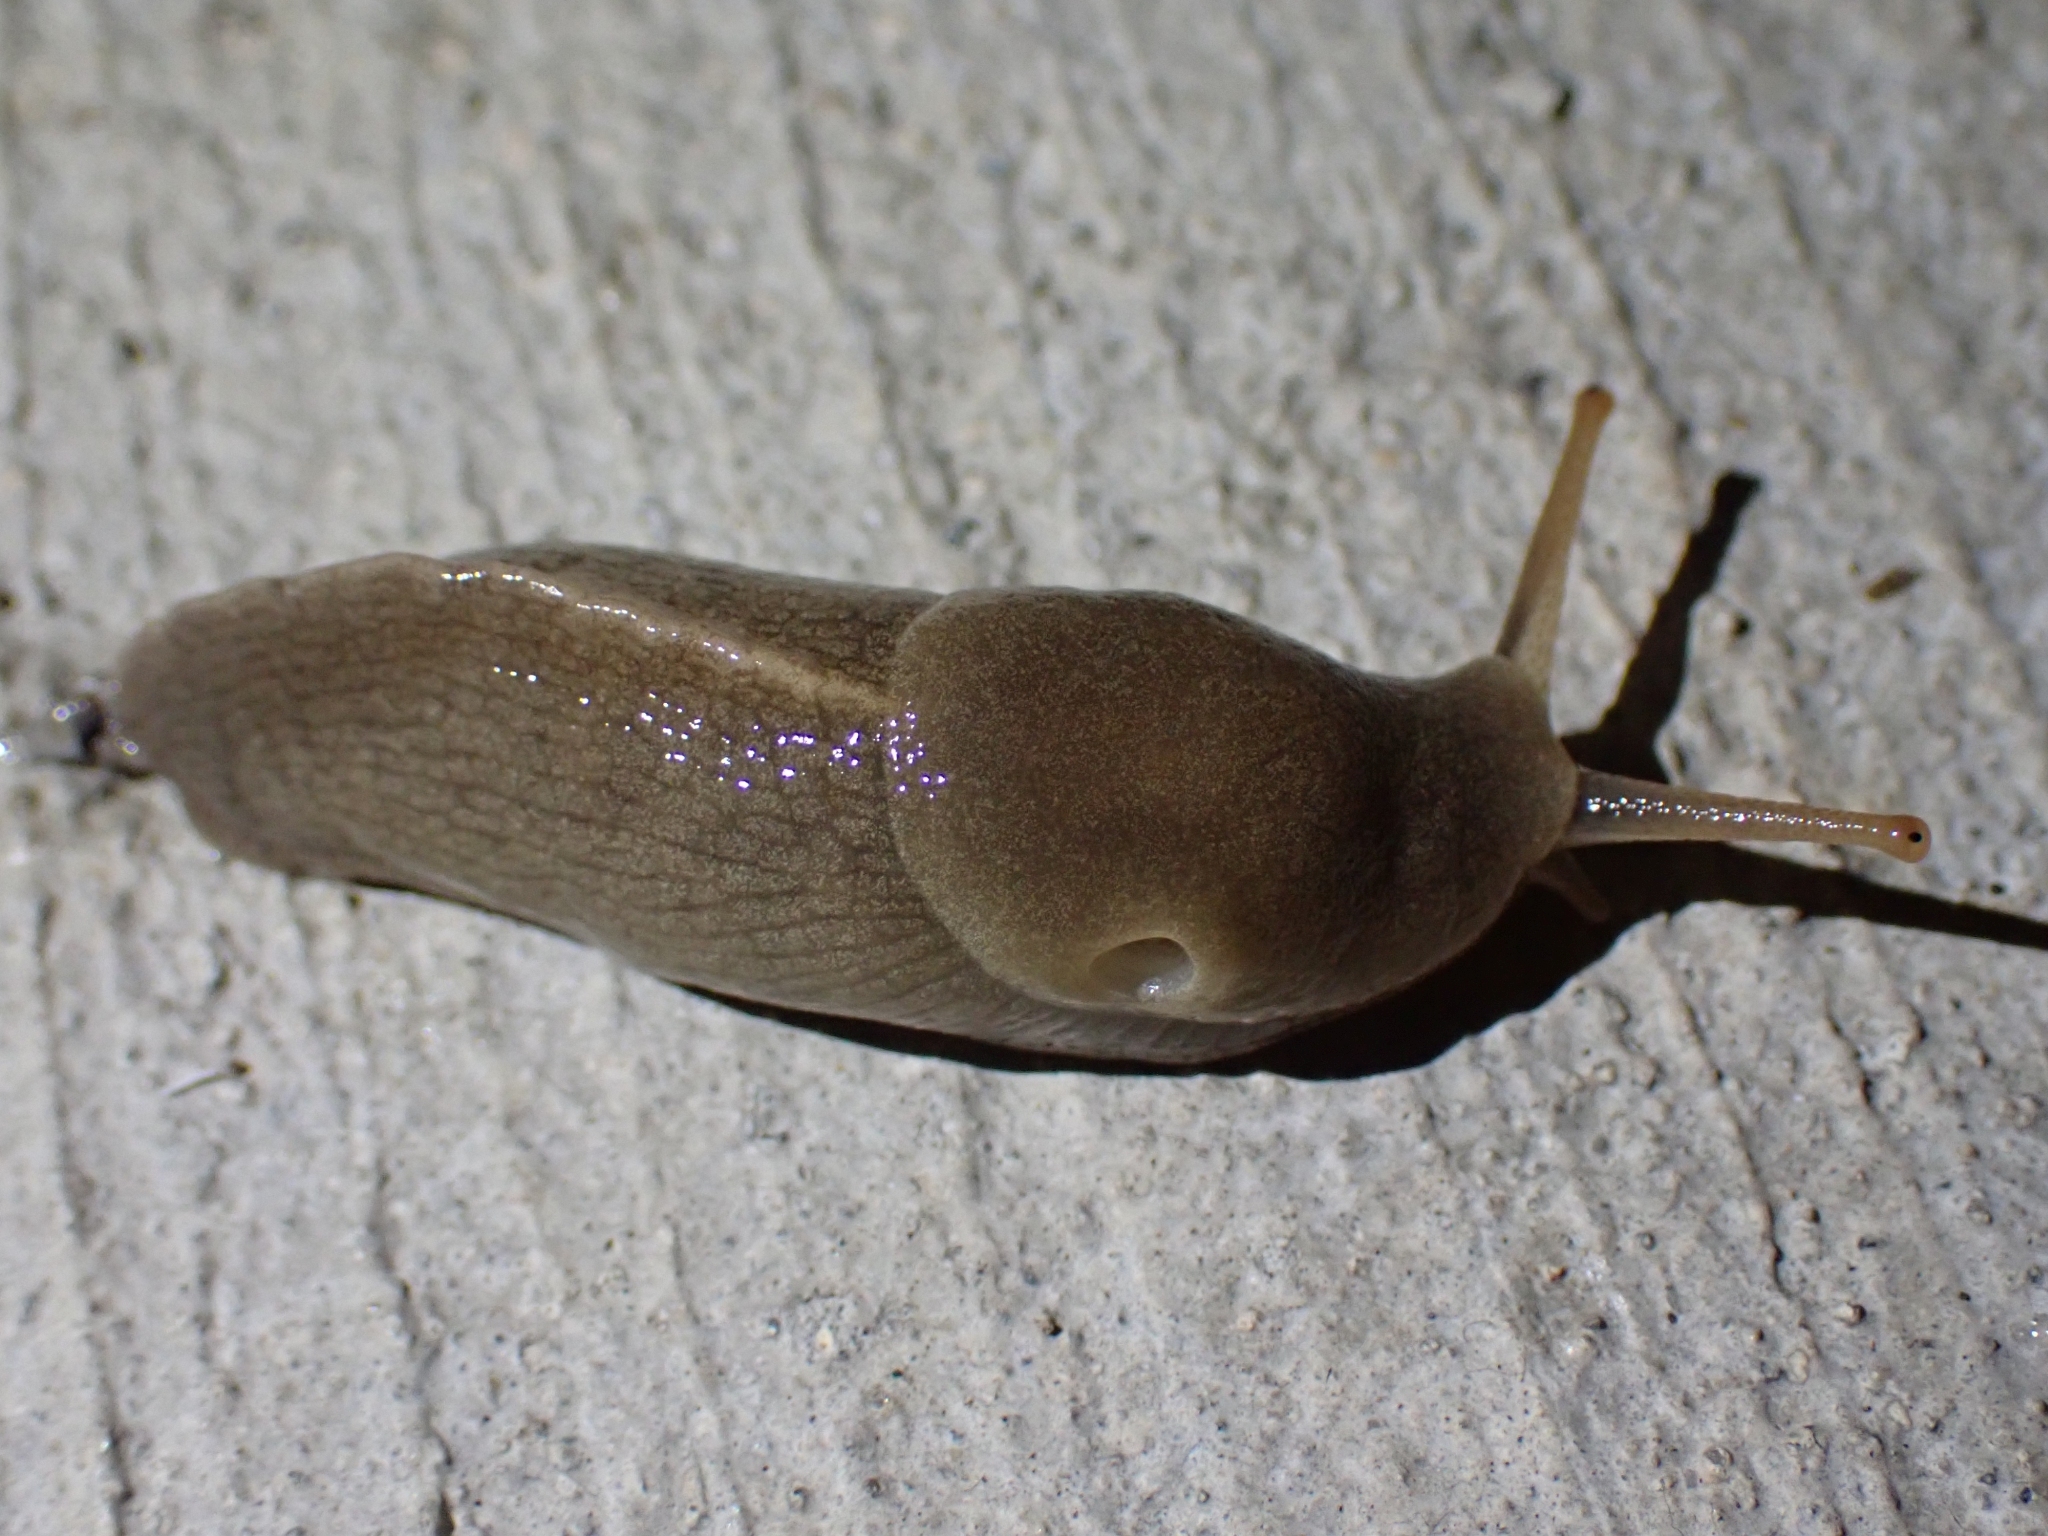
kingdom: Animalia
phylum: Mollusca
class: Gastropoda
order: Stylommatophora
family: Ariolimacidae
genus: Ariolimax
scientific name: Ariolimax columbianus
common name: Pacific banana slug
